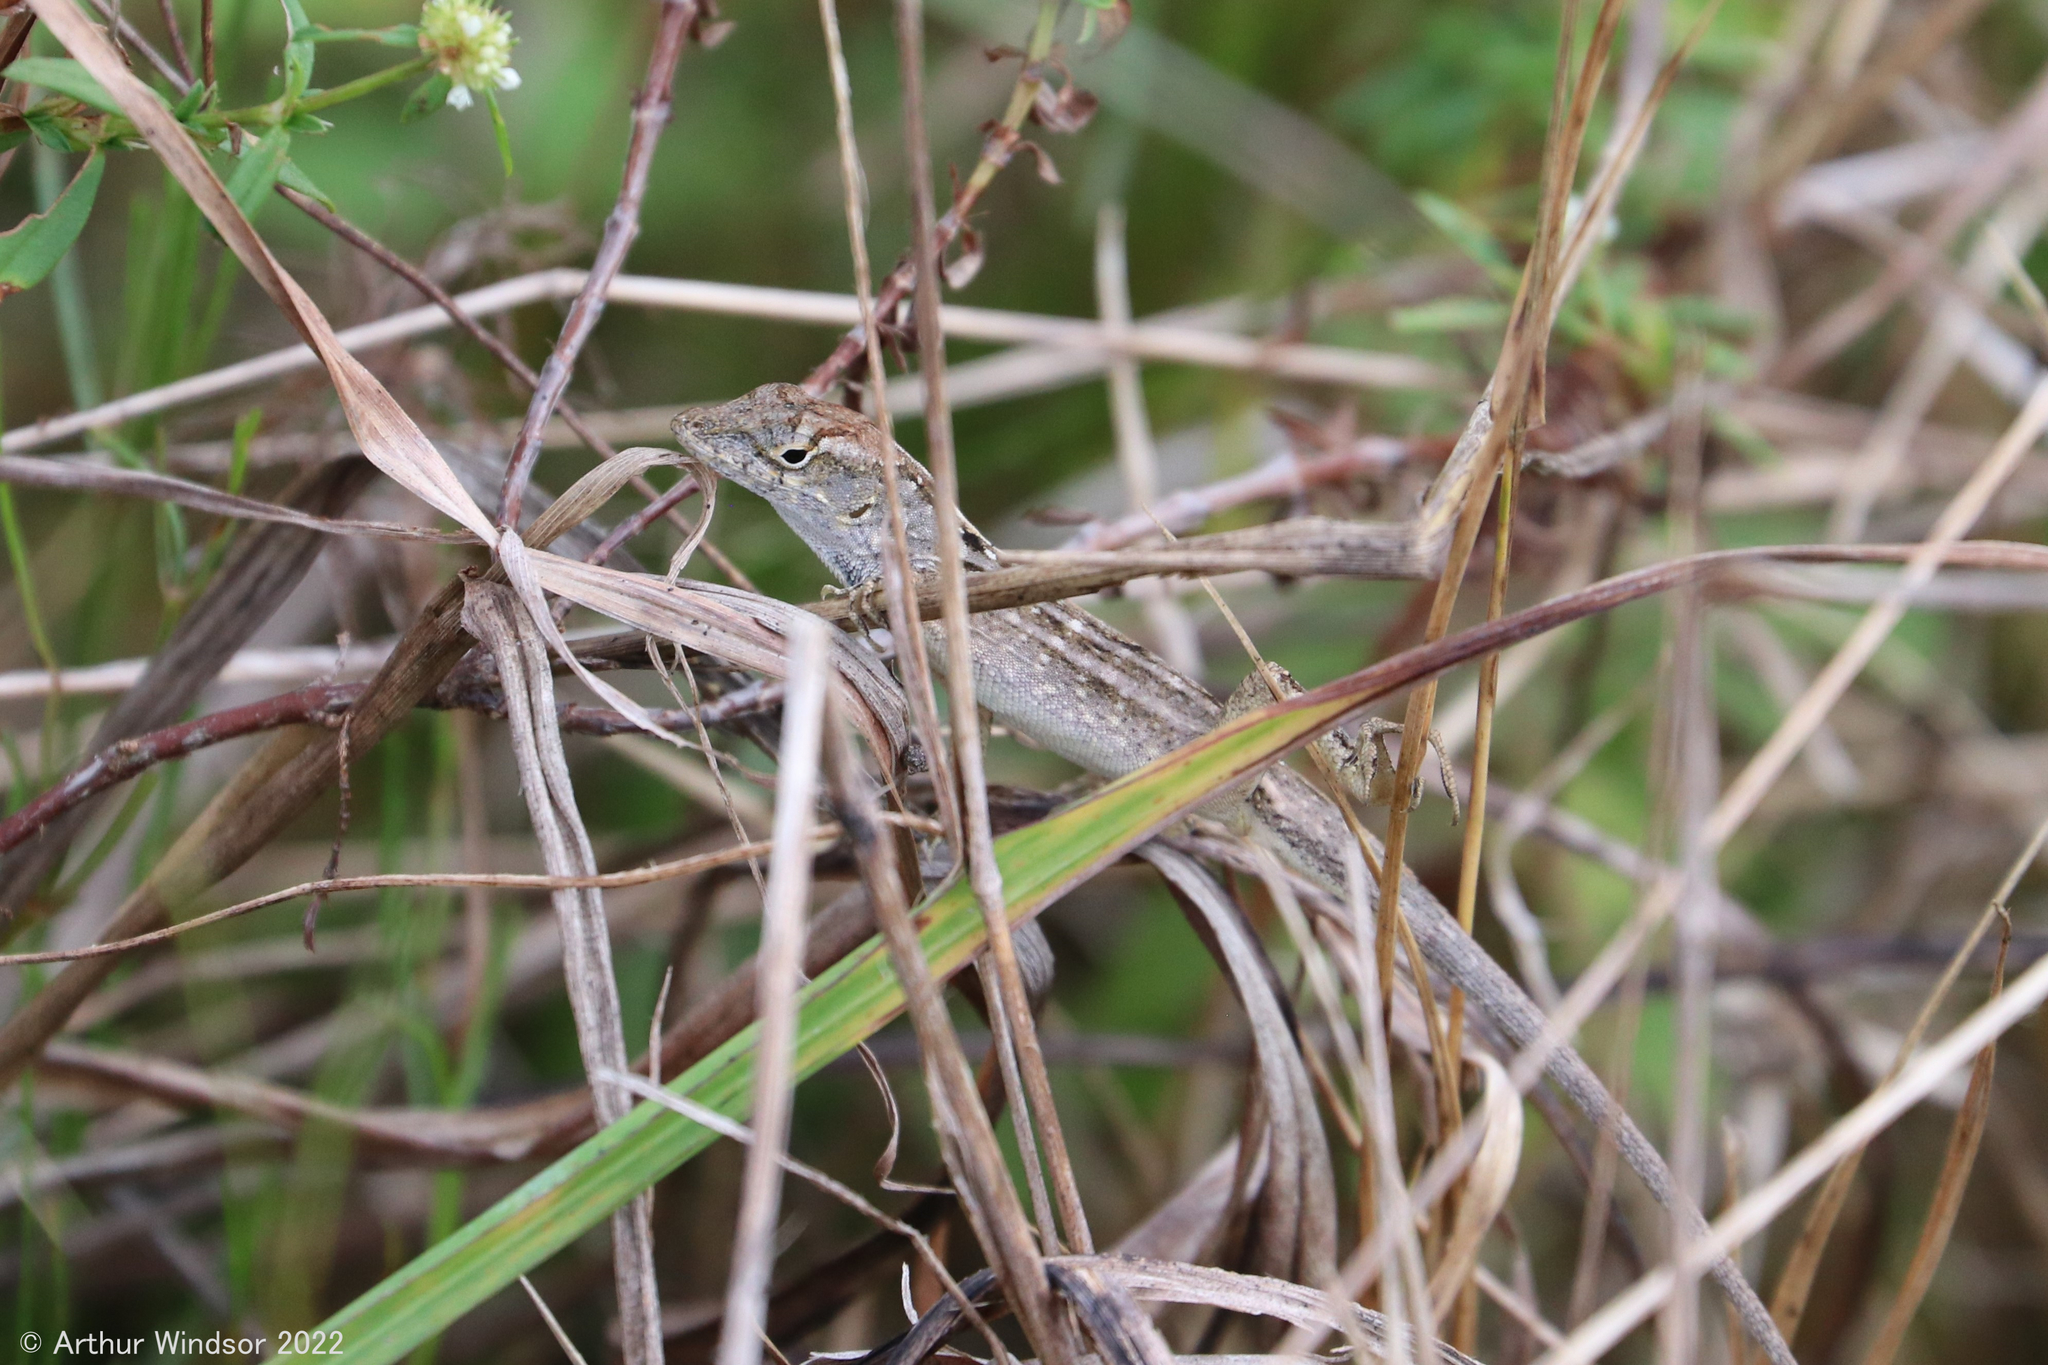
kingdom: Animalia
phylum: Chordata
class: Squamata
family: Dactyloidae
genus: Anolis
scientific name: Anolis sagrei
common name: Brown anole
